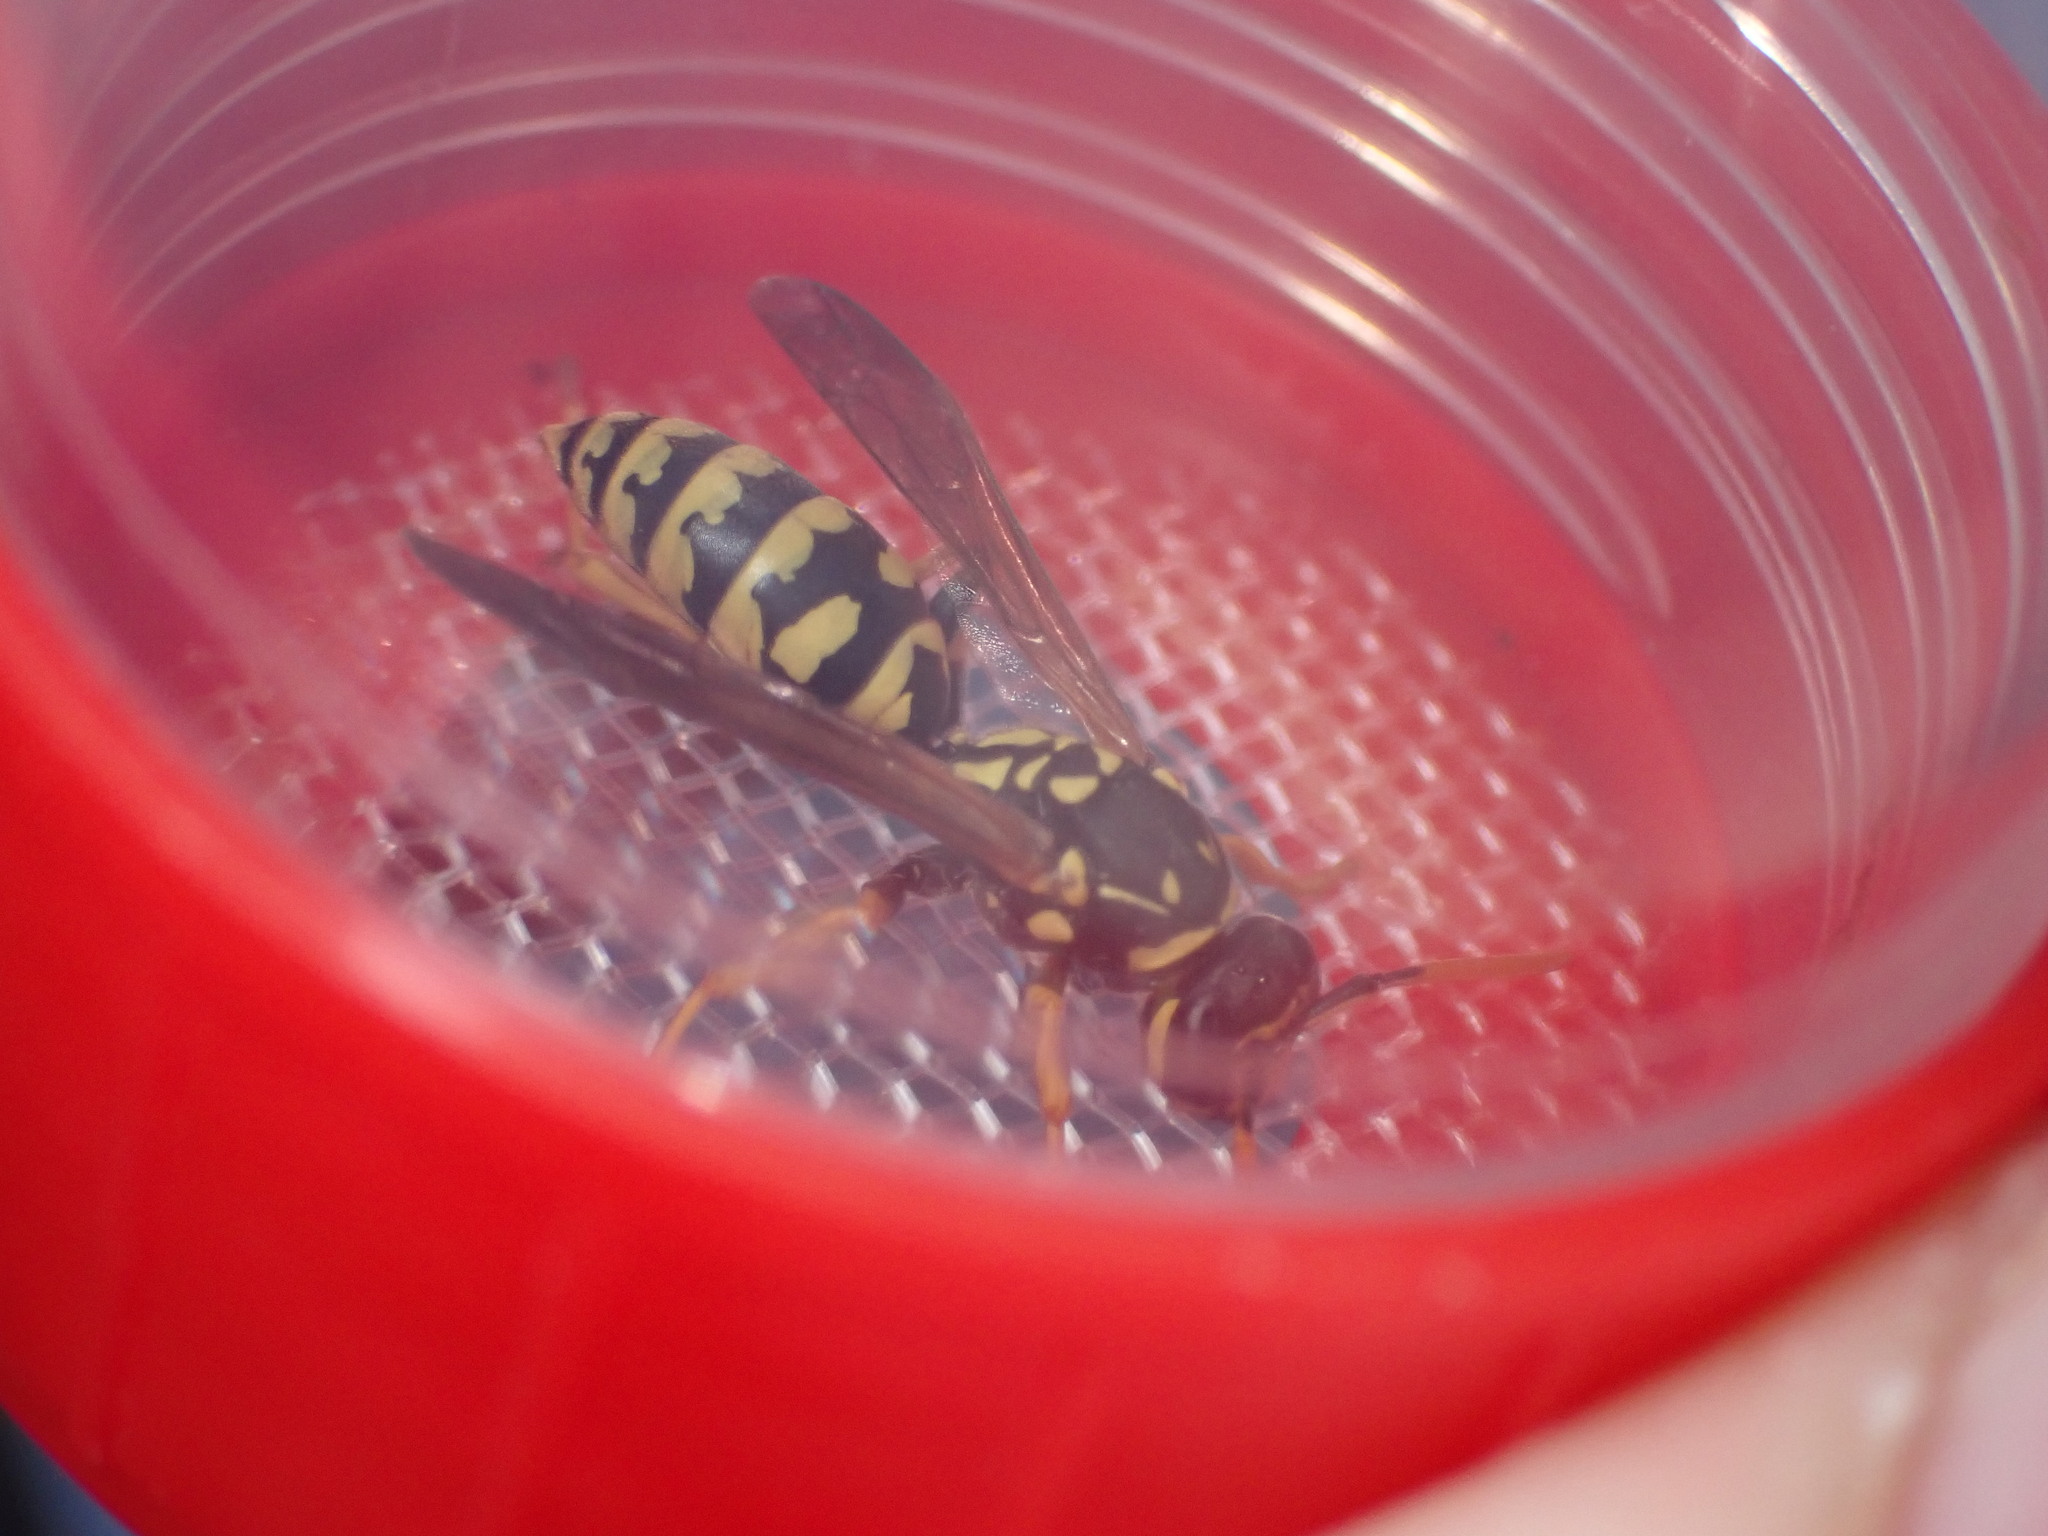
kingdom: Animalia
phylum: Arthropoda
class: Insecta
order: Hymenoptera
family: Eumenidae
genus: Polistes
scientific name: Polistes dominula
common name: Paper wasp
